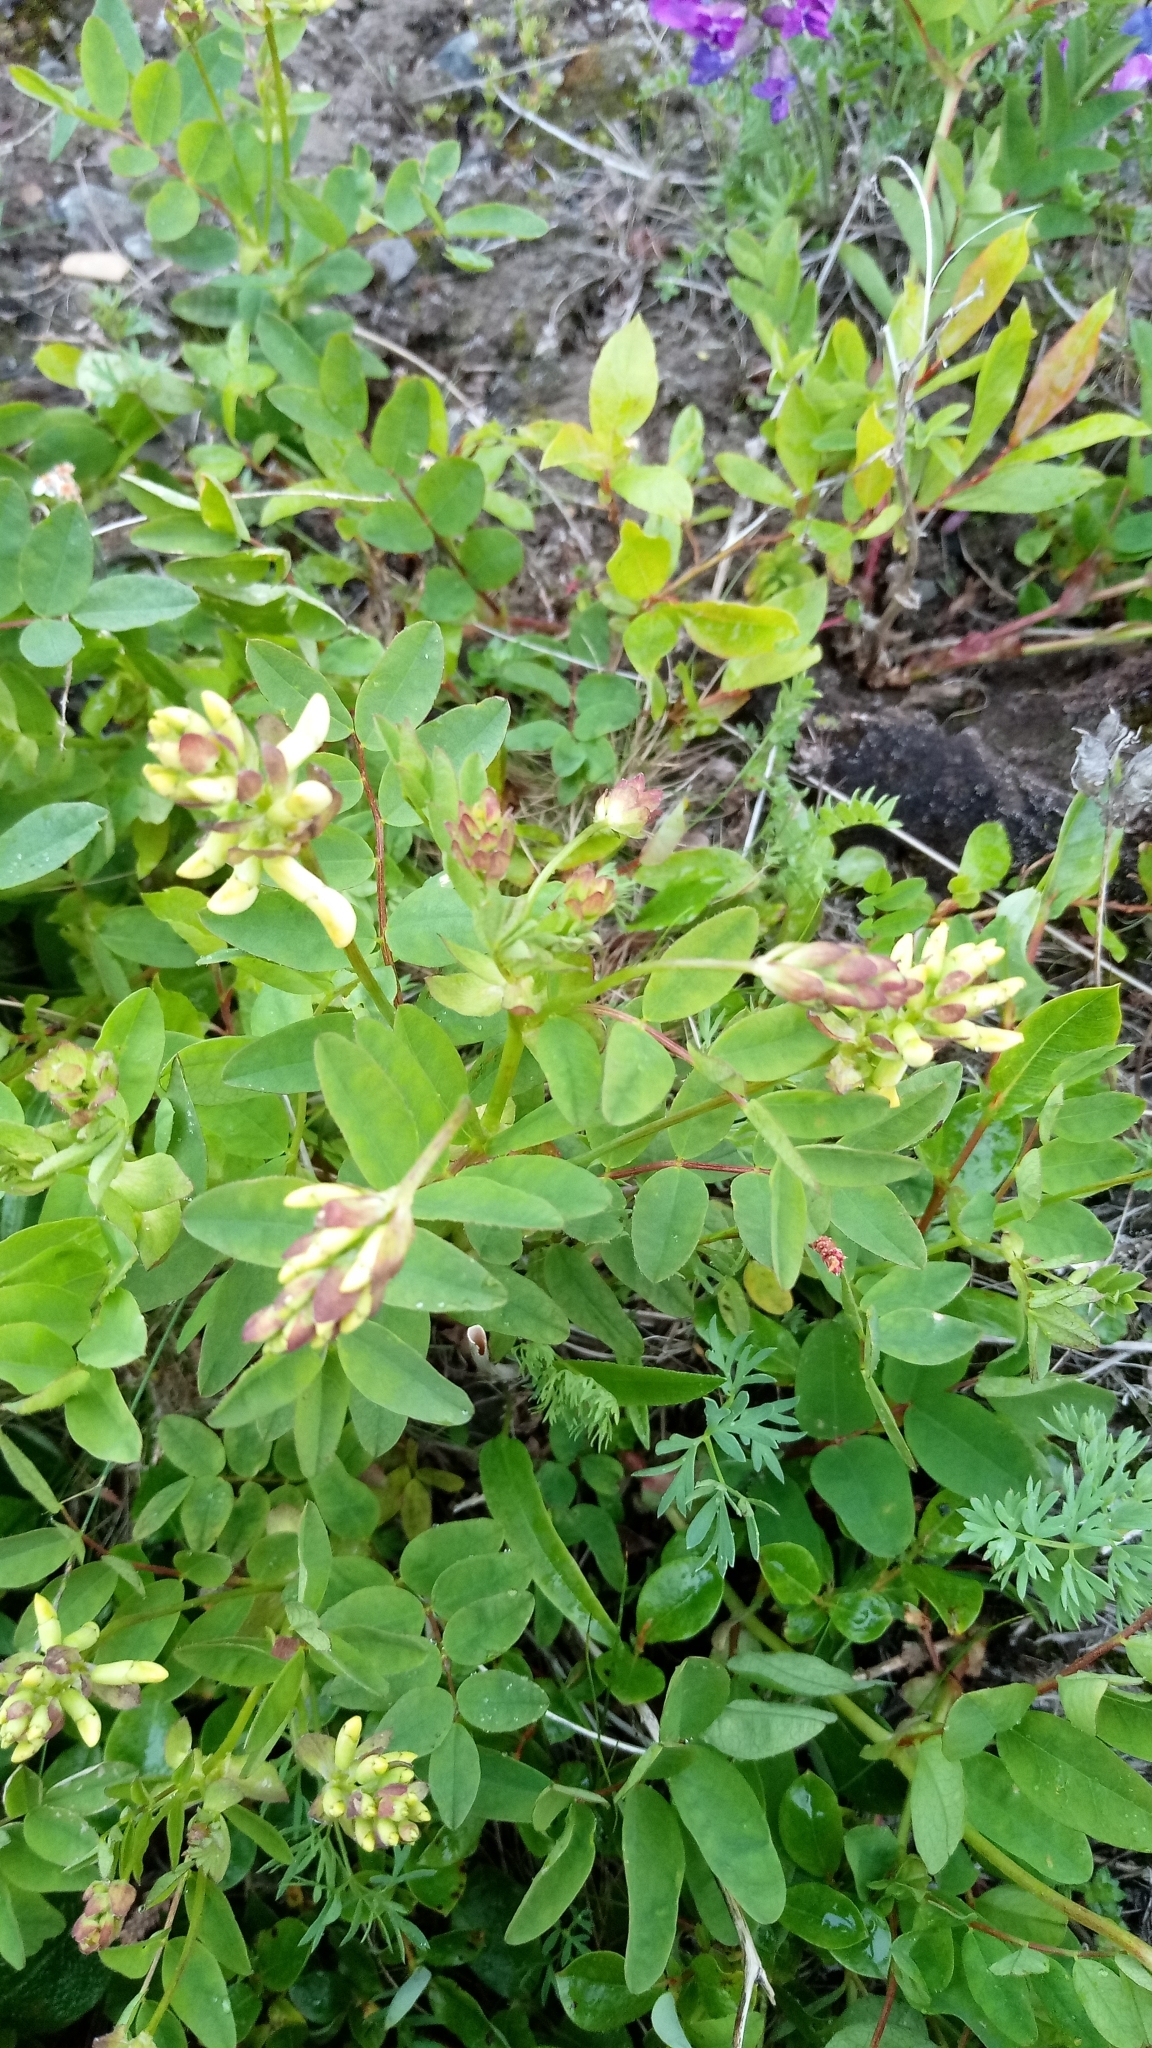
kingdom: Plantae
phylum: Tracheophyta
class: Magnoliopsida
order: Fabales
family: Fabaceae
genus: Astragalus
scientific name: Astragalus frigidus
